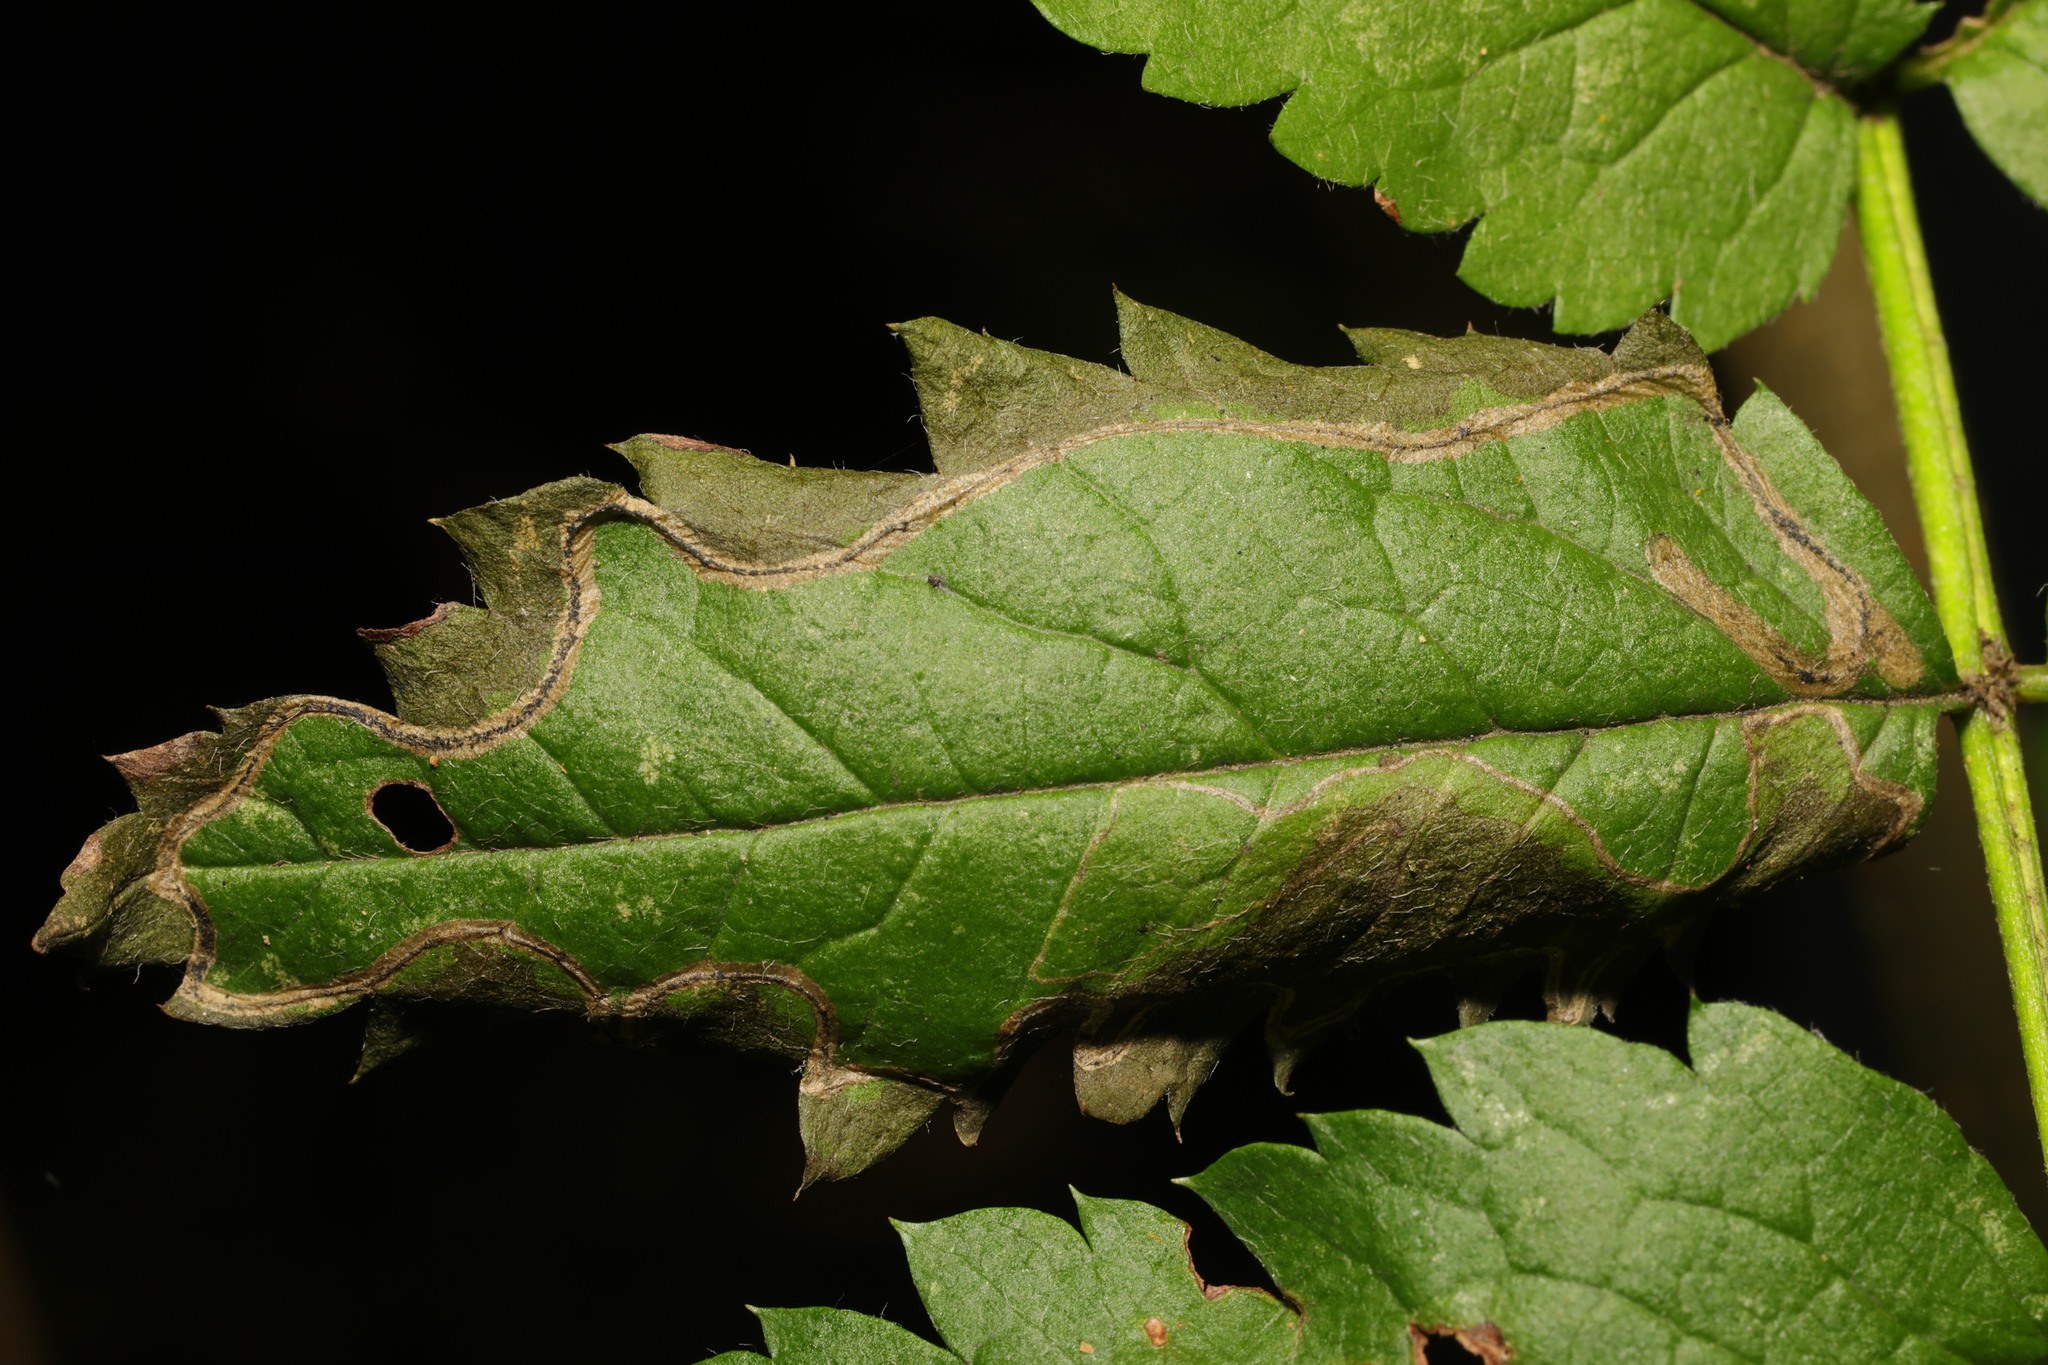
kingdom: Animalia
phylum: Arthropoda
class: Insecta
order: Lepidoptera
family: Lyonetiidae
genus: Lyonetia
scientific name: Lyonetia clerkella
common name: Apple leaf miner
